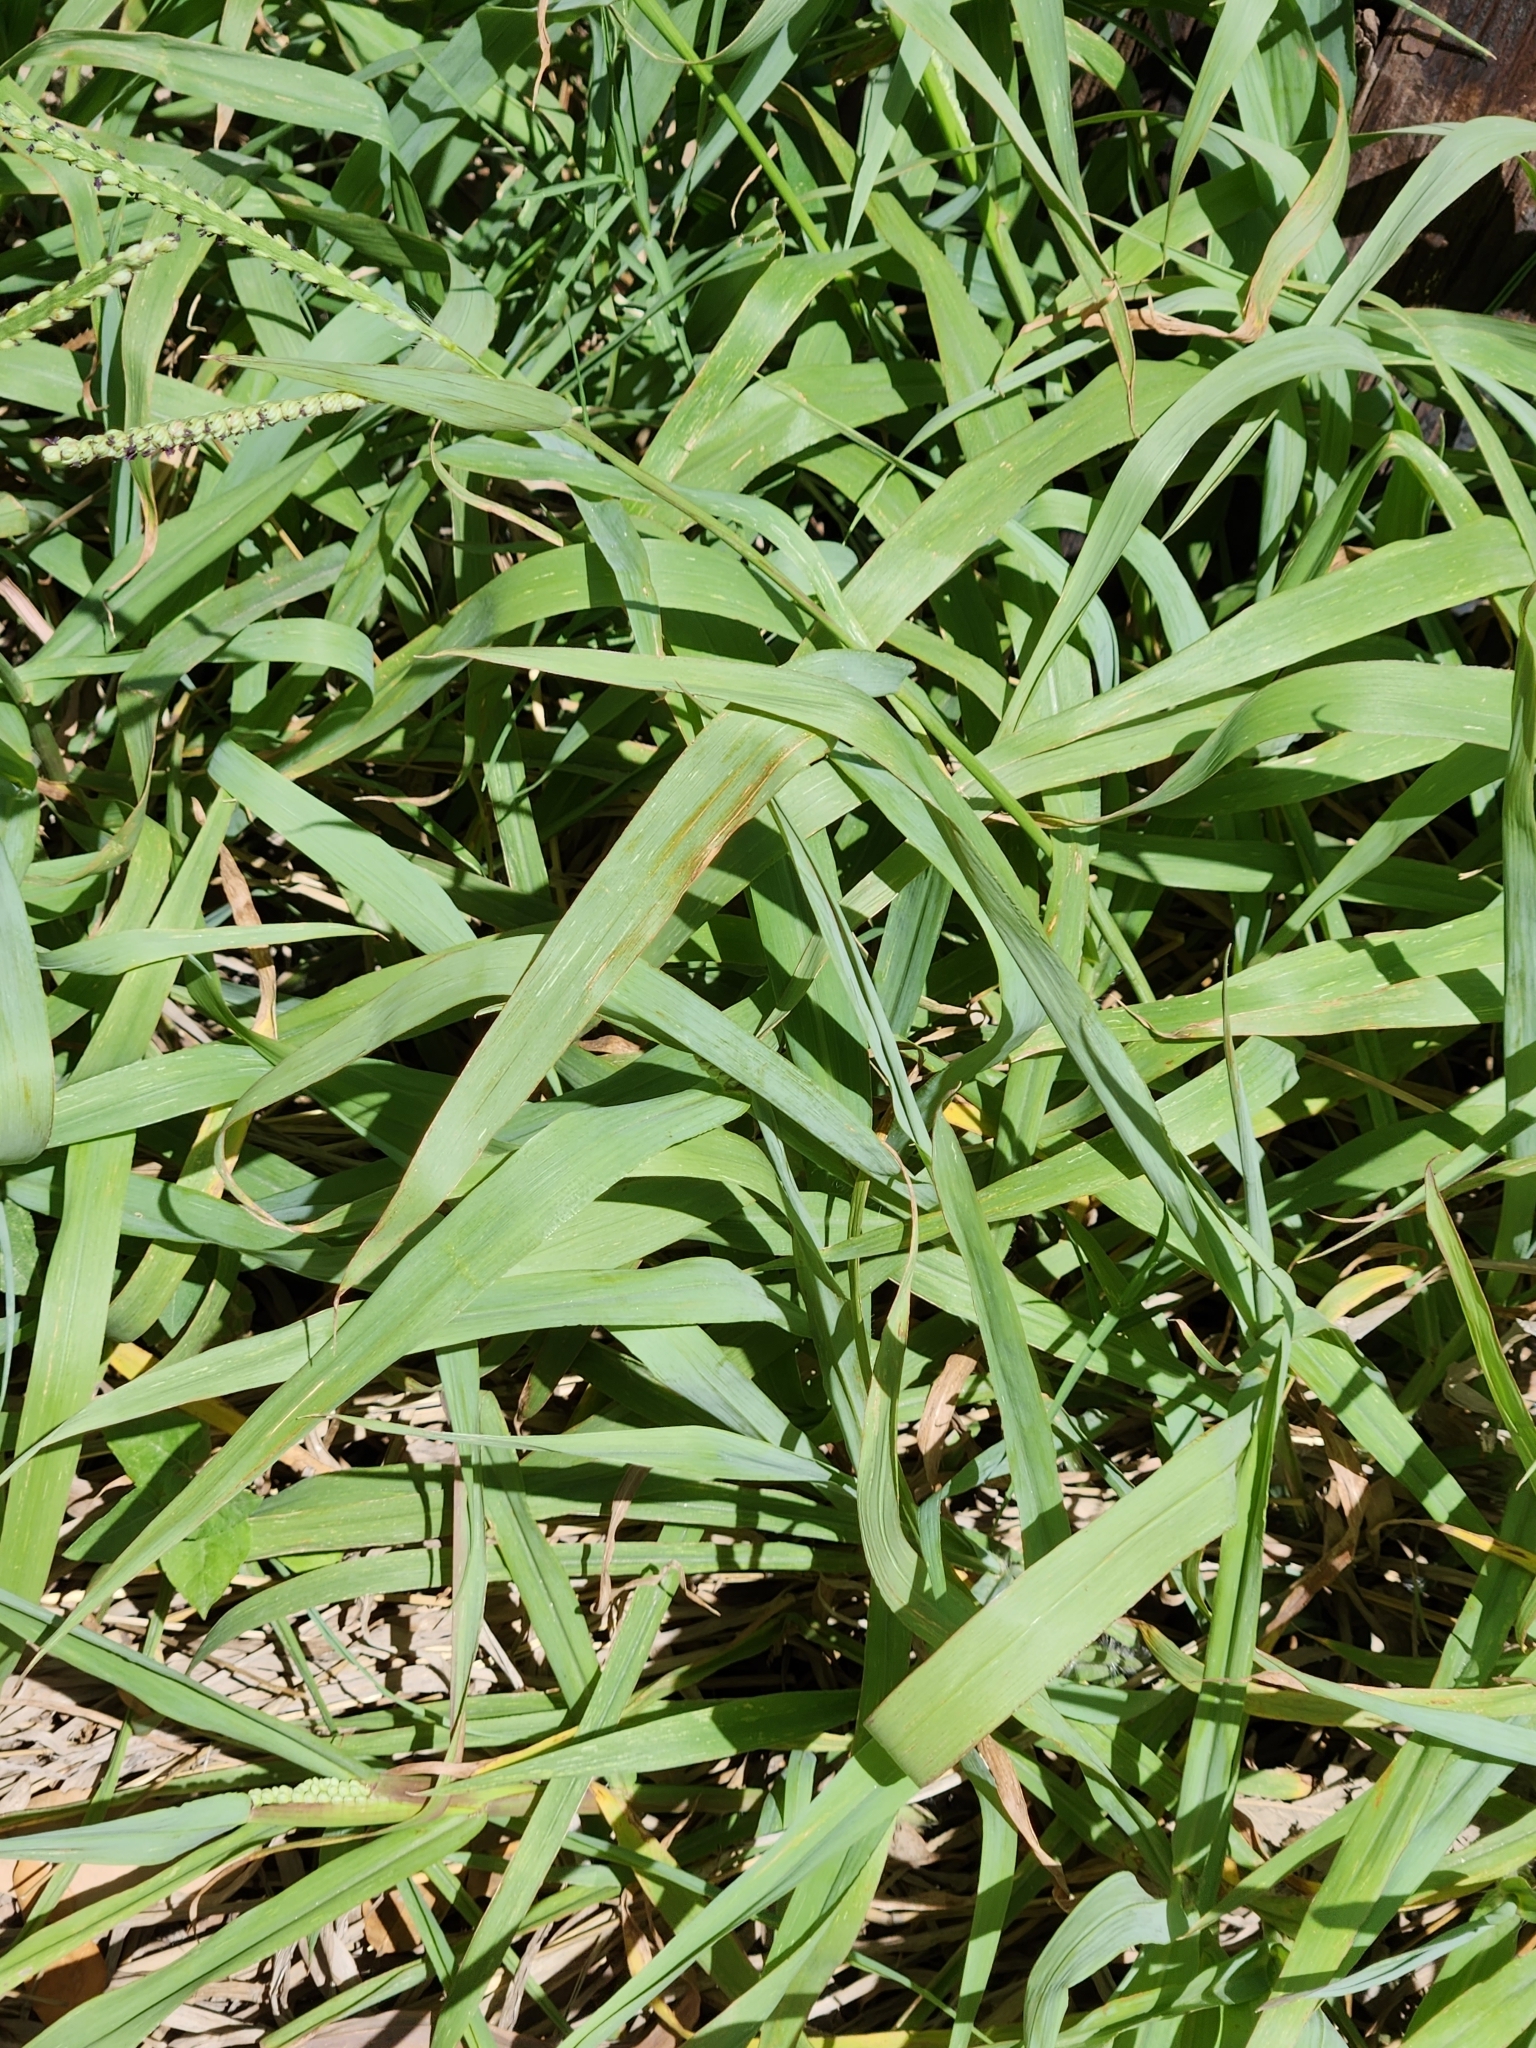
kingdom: Plantae
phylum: Tracheophyta
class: Liliopsida
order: Poales
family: Poaceae
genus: Paspalum
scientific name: Paspalum pubiflorum
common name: Hairy-seed paspalum
